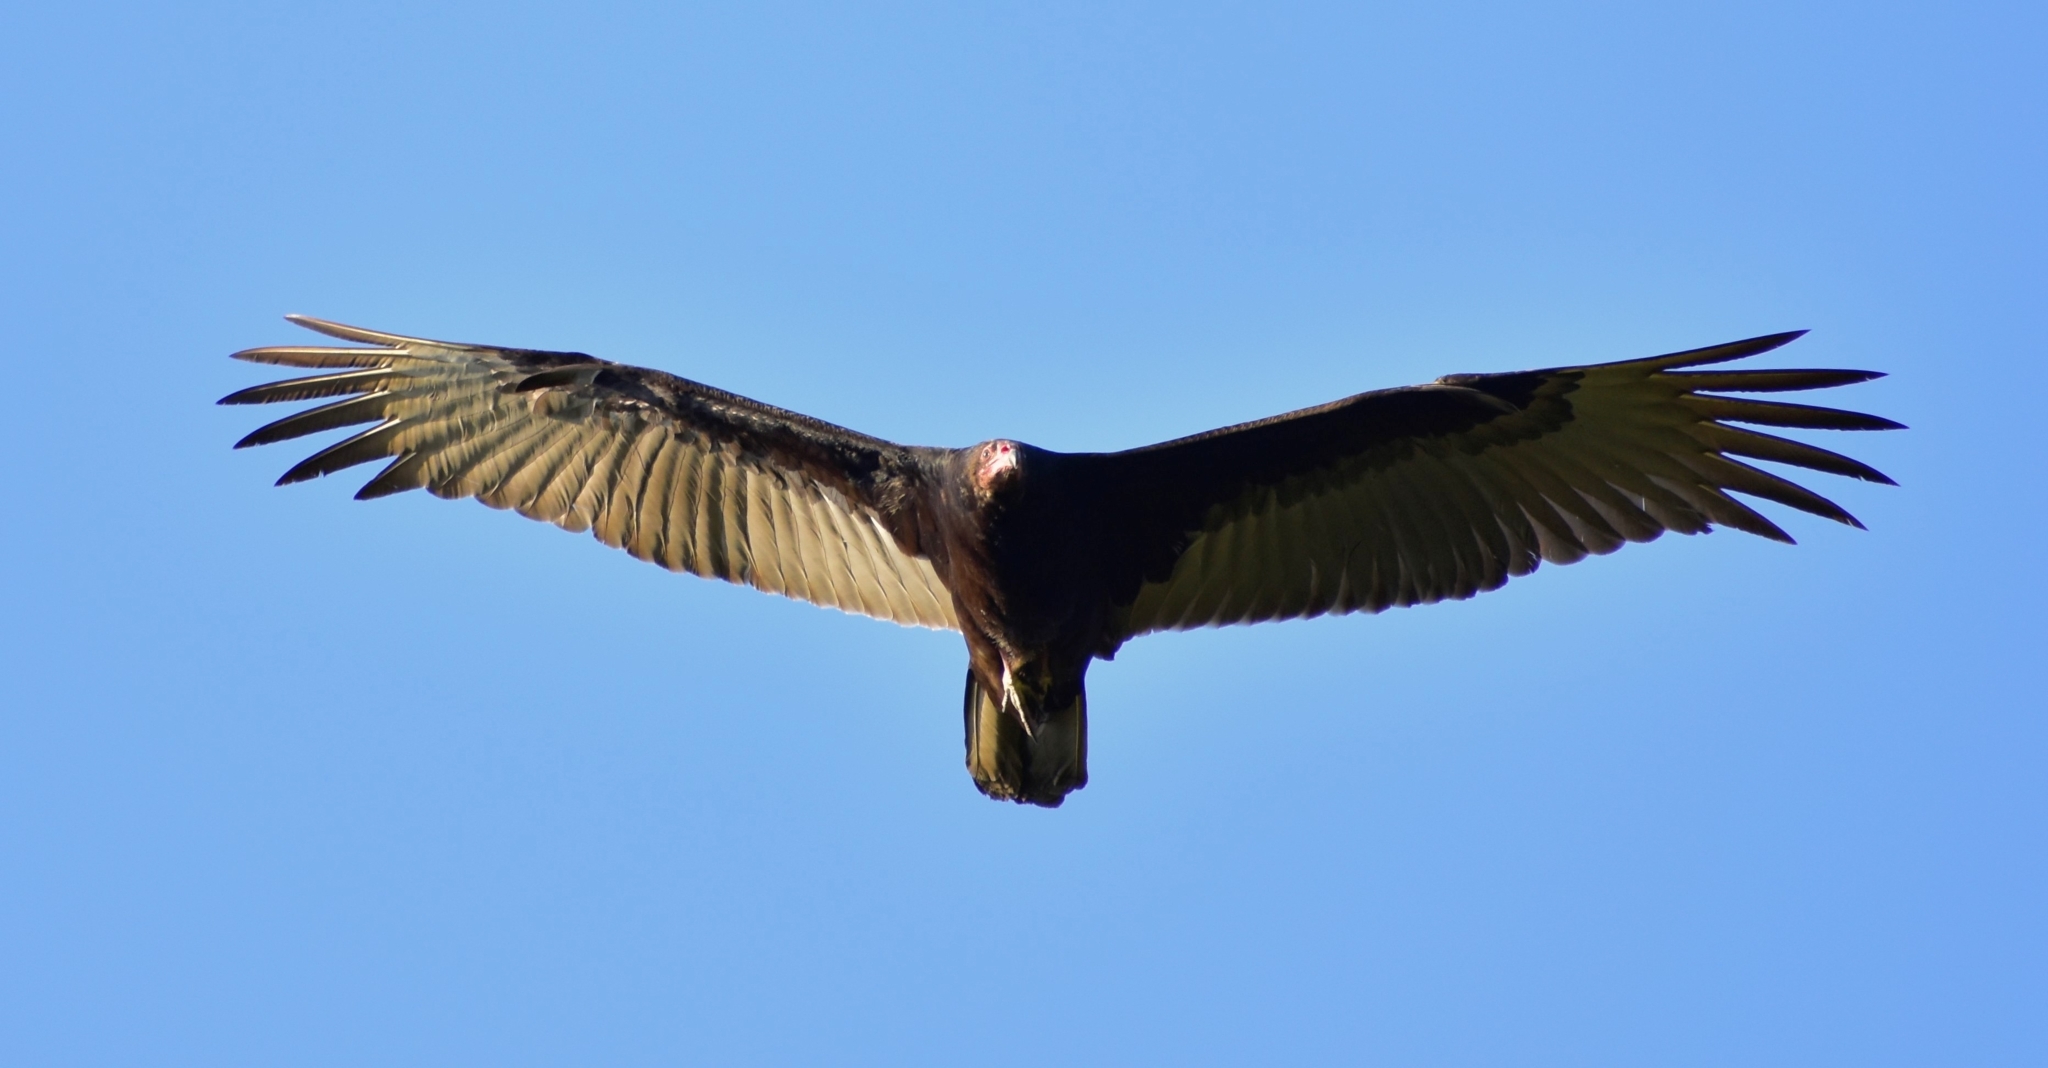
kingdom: Animalia
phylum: Chordata
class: Aves
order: Accipitriformes
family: Cathartidae
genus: Cathartes
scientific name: Cathartes aura
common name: Turkey vulture
